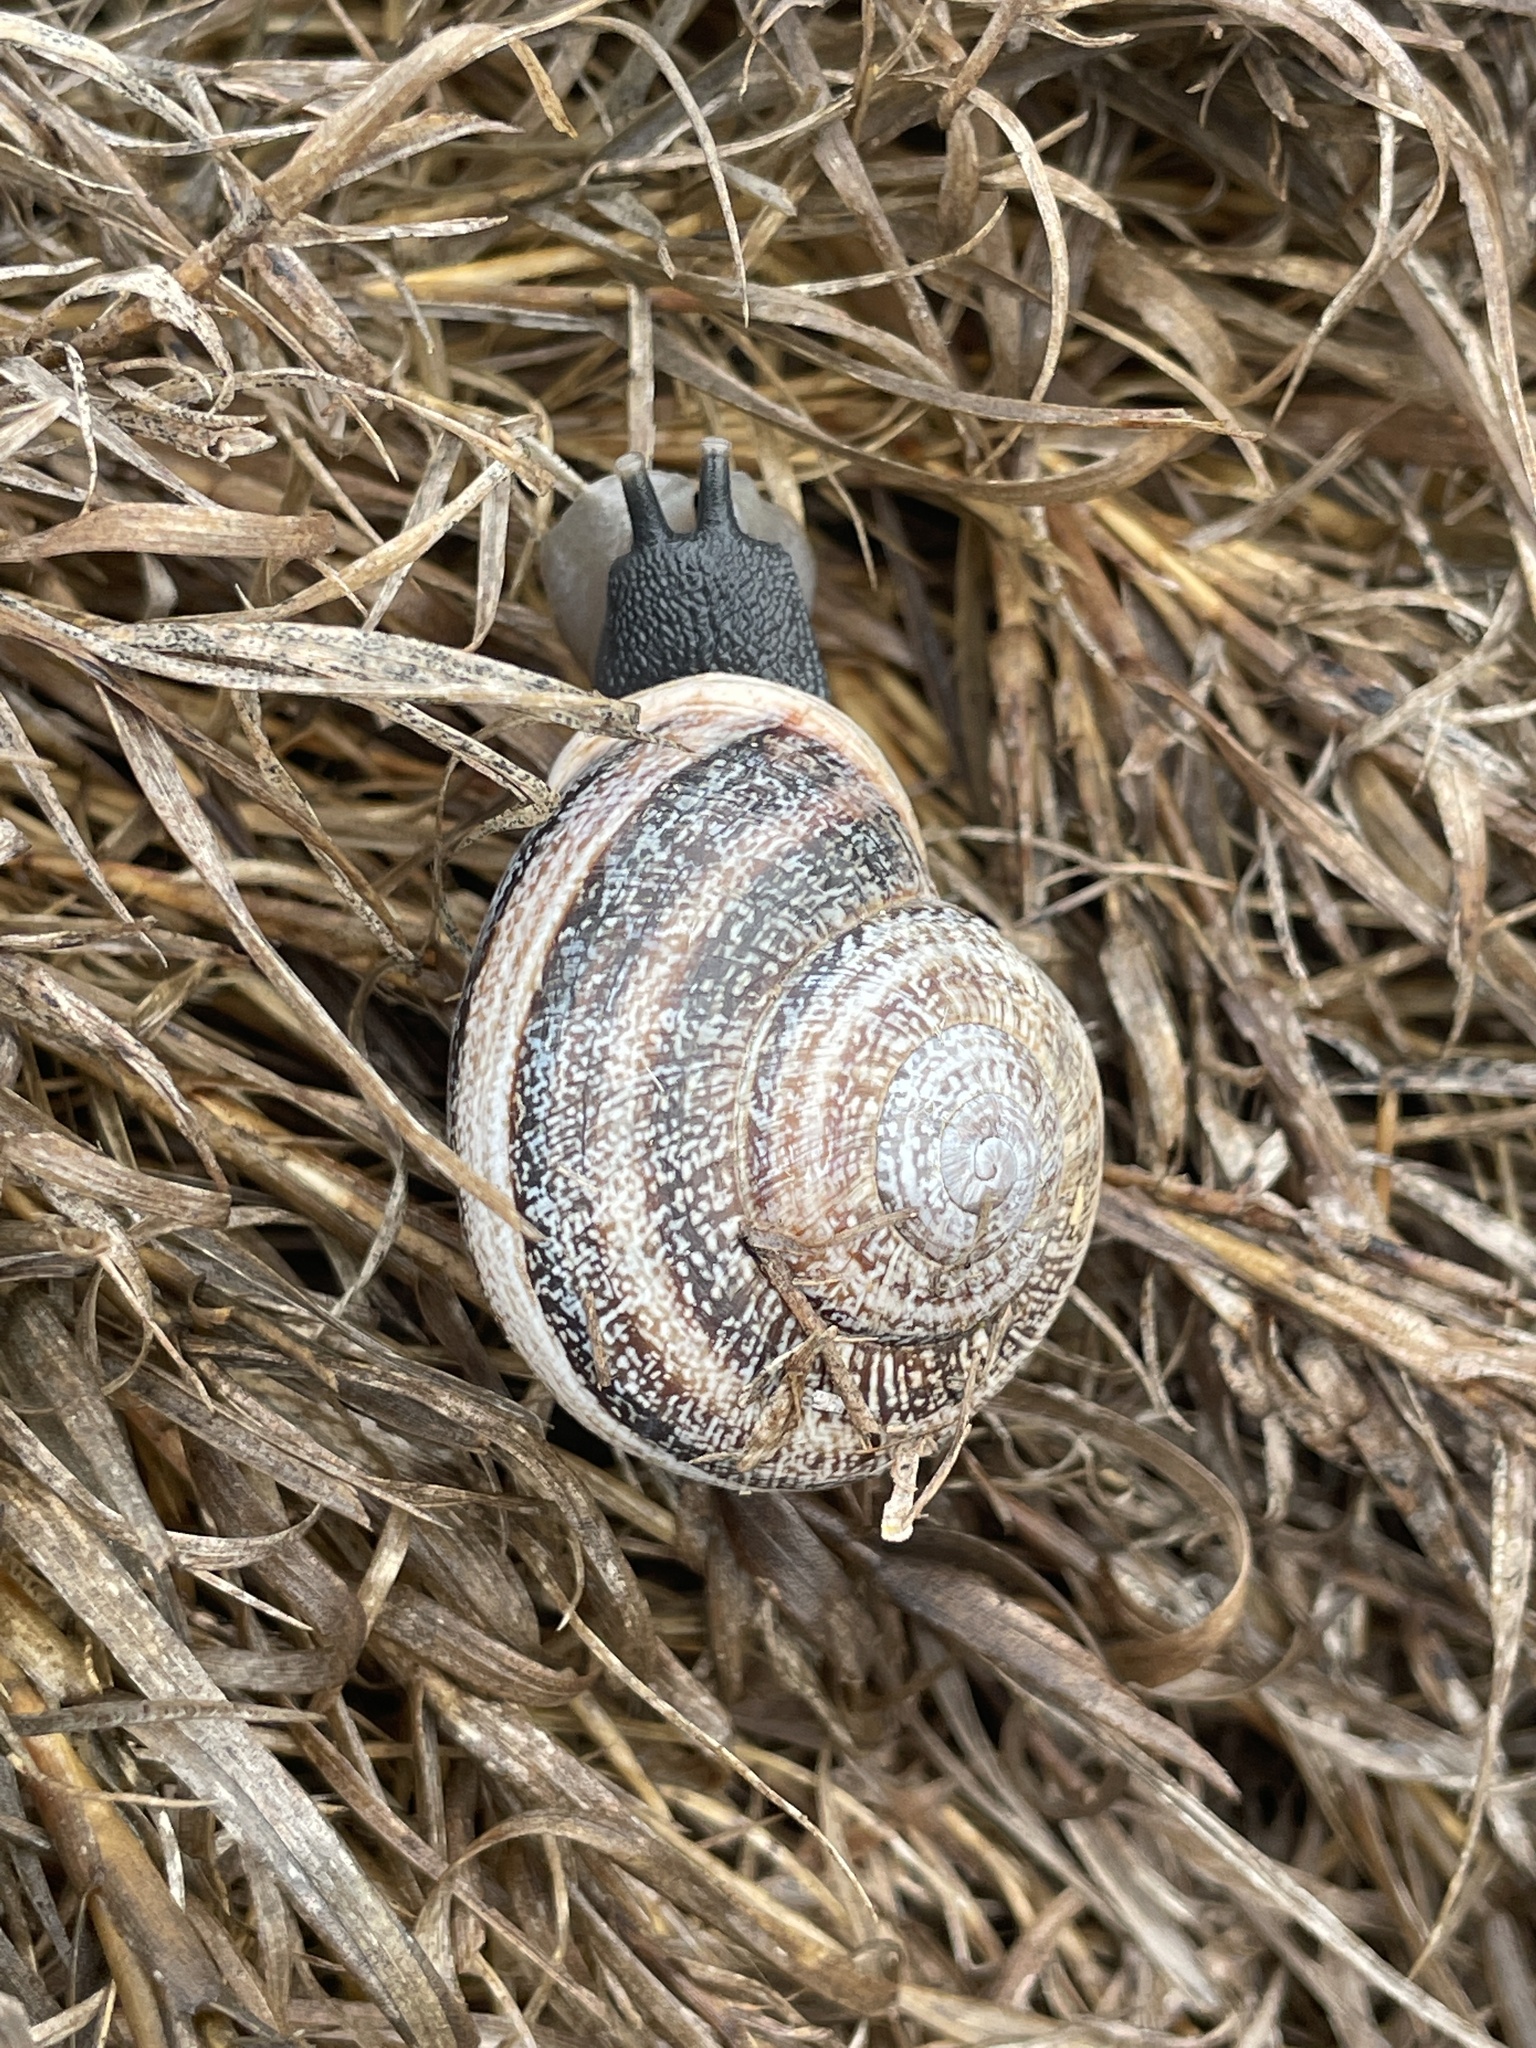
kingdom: Animalia
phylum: Mollusca
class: Gastropoda
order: Stylommatophora
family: Helicidae
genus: Otala
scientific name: Otala lactea
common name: Milk snail
